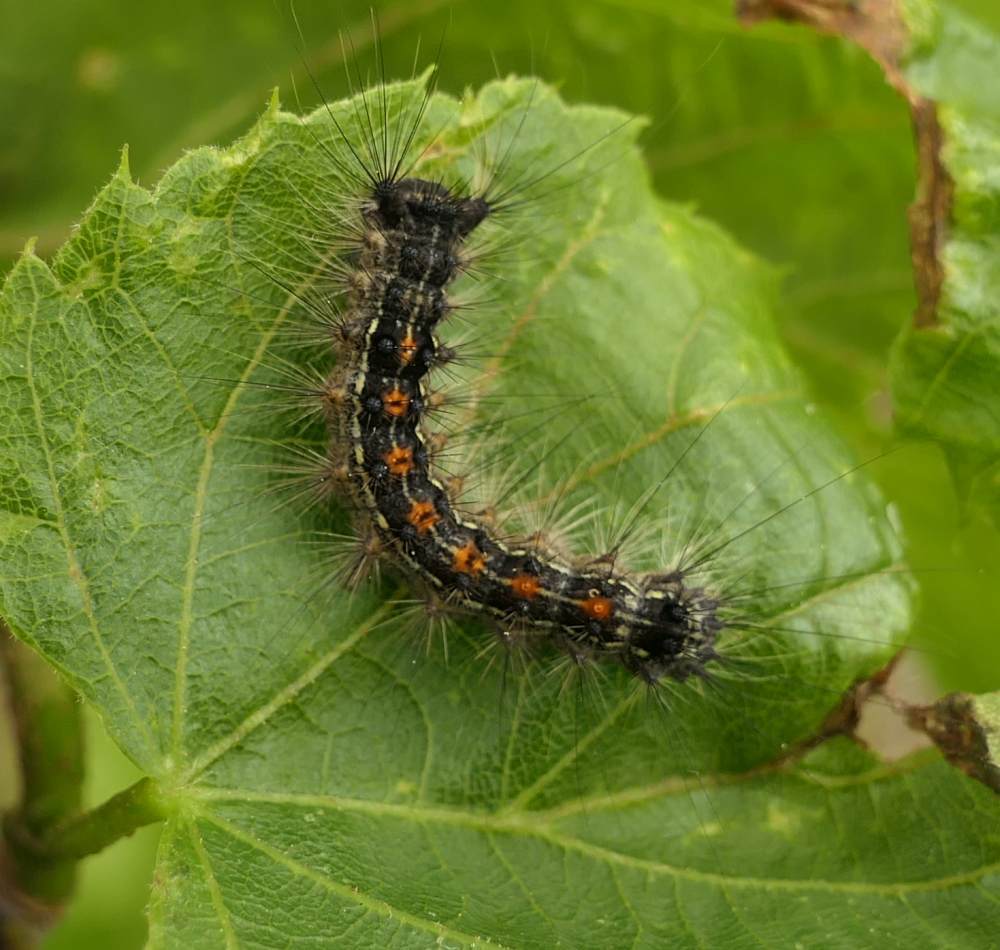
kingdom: Animalia
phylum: Arthropoda
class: Insecta
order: Lepidoptera
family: Erebidae
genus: Lymantria
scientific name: Lymantria dispar
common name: Gypsy moth
